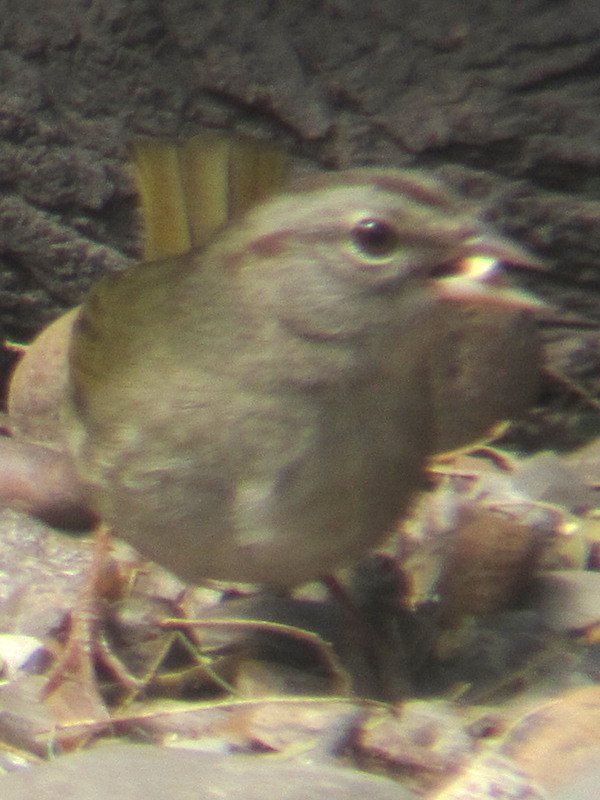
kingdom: Animalia
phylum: Chordata
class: Aves
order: Passeriformes
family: Passerellidae
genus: Arremonops
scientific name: Arremonops rufivirgatus
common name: Olive sparrow
